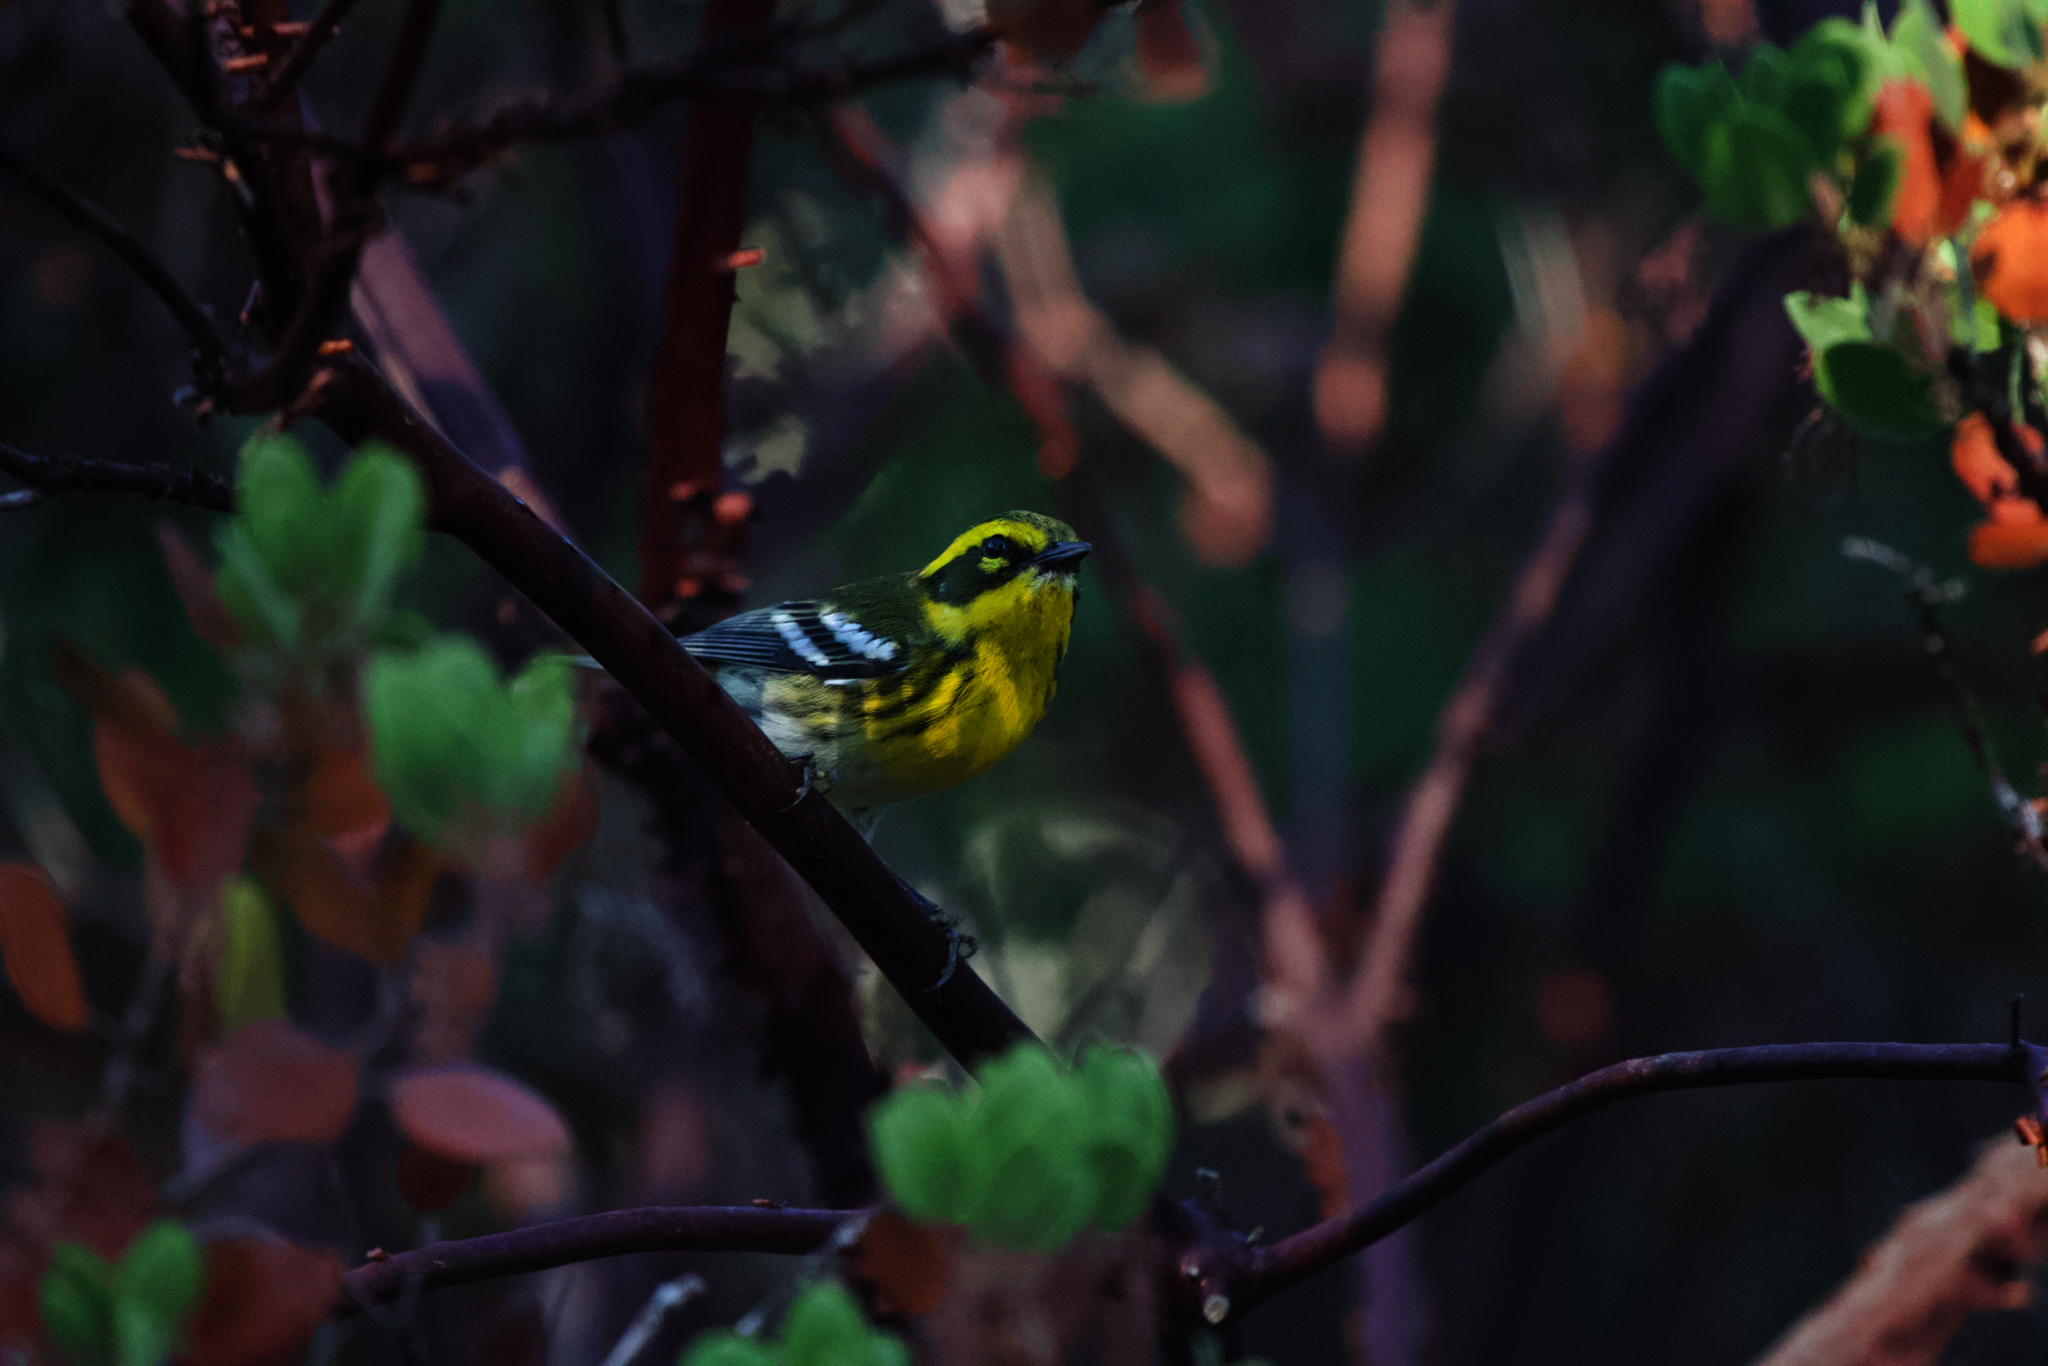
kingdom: Animalia
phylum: Chordata
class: Aves
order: Passeriformes
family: Parulidae
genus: Setophaga
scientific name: Setophaga townsendi
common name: Townsend's warbler
